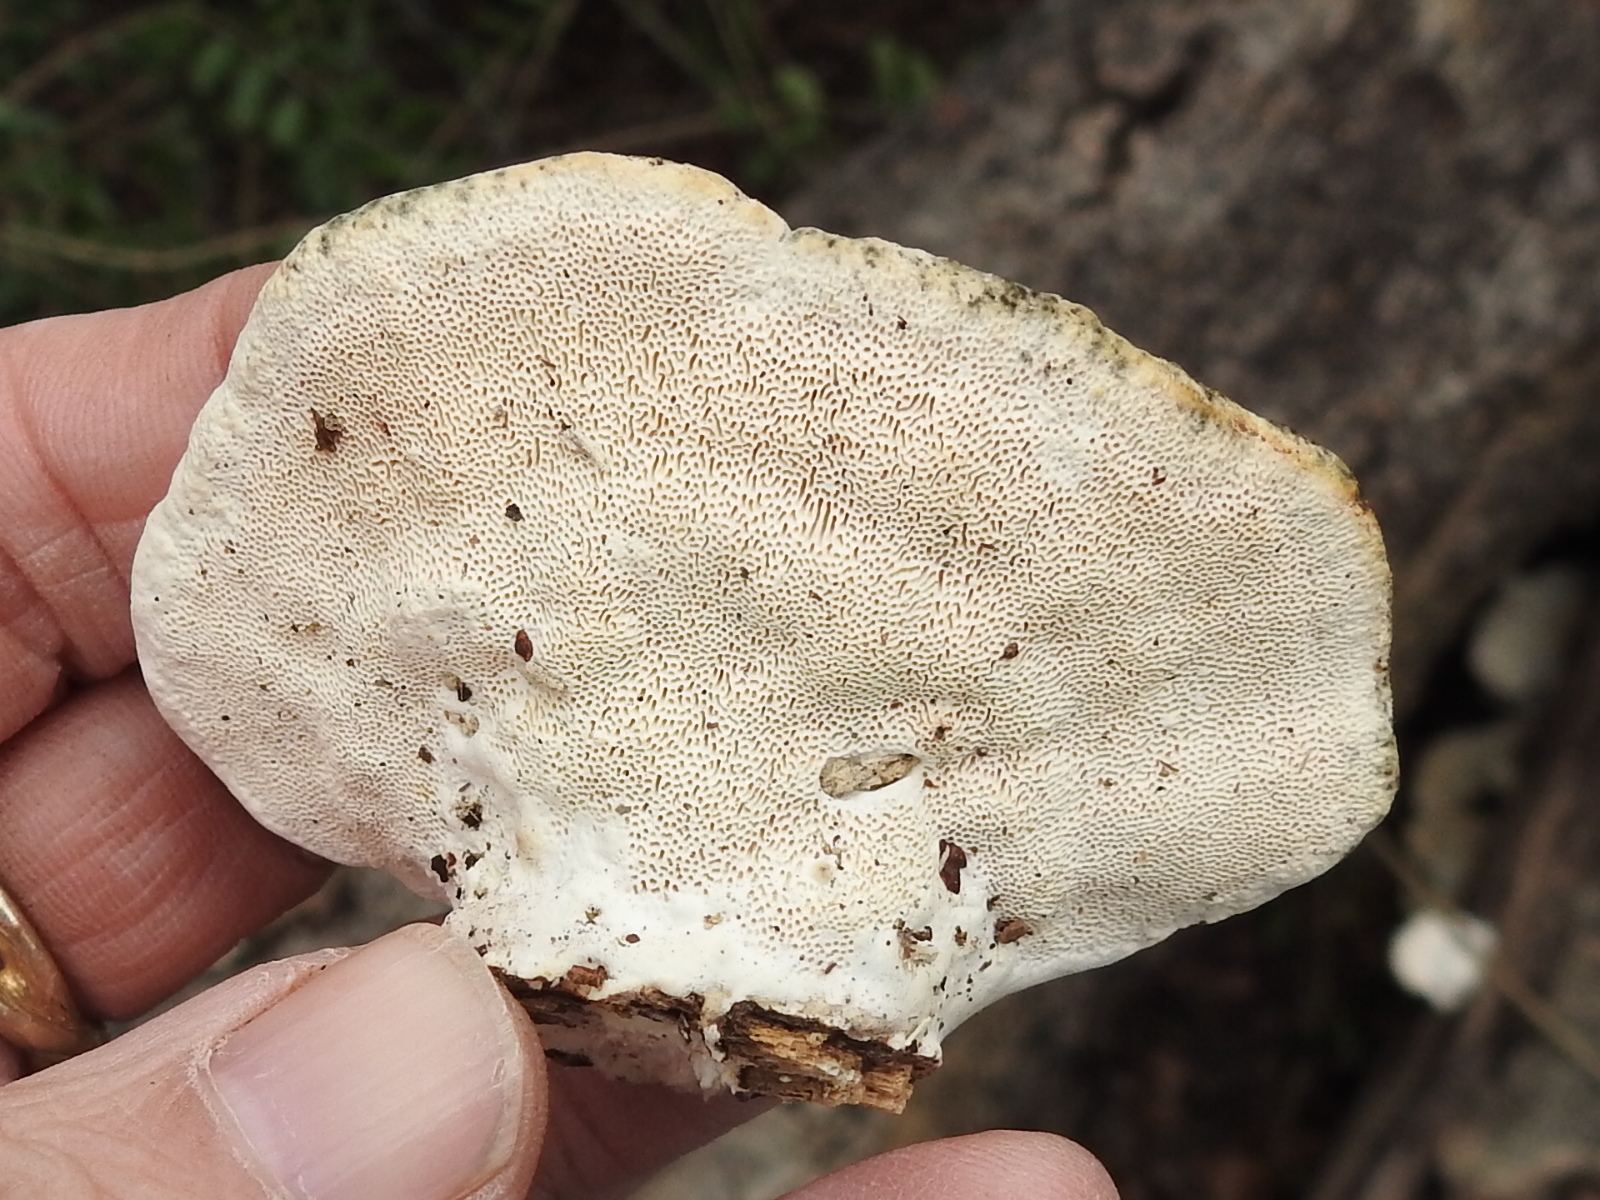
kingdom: Fungi
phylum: Basidiomycota
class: Agaricomycetes
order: Polyporales
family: Polyporaceae
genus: Trametes
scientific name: Trametes lactinea
